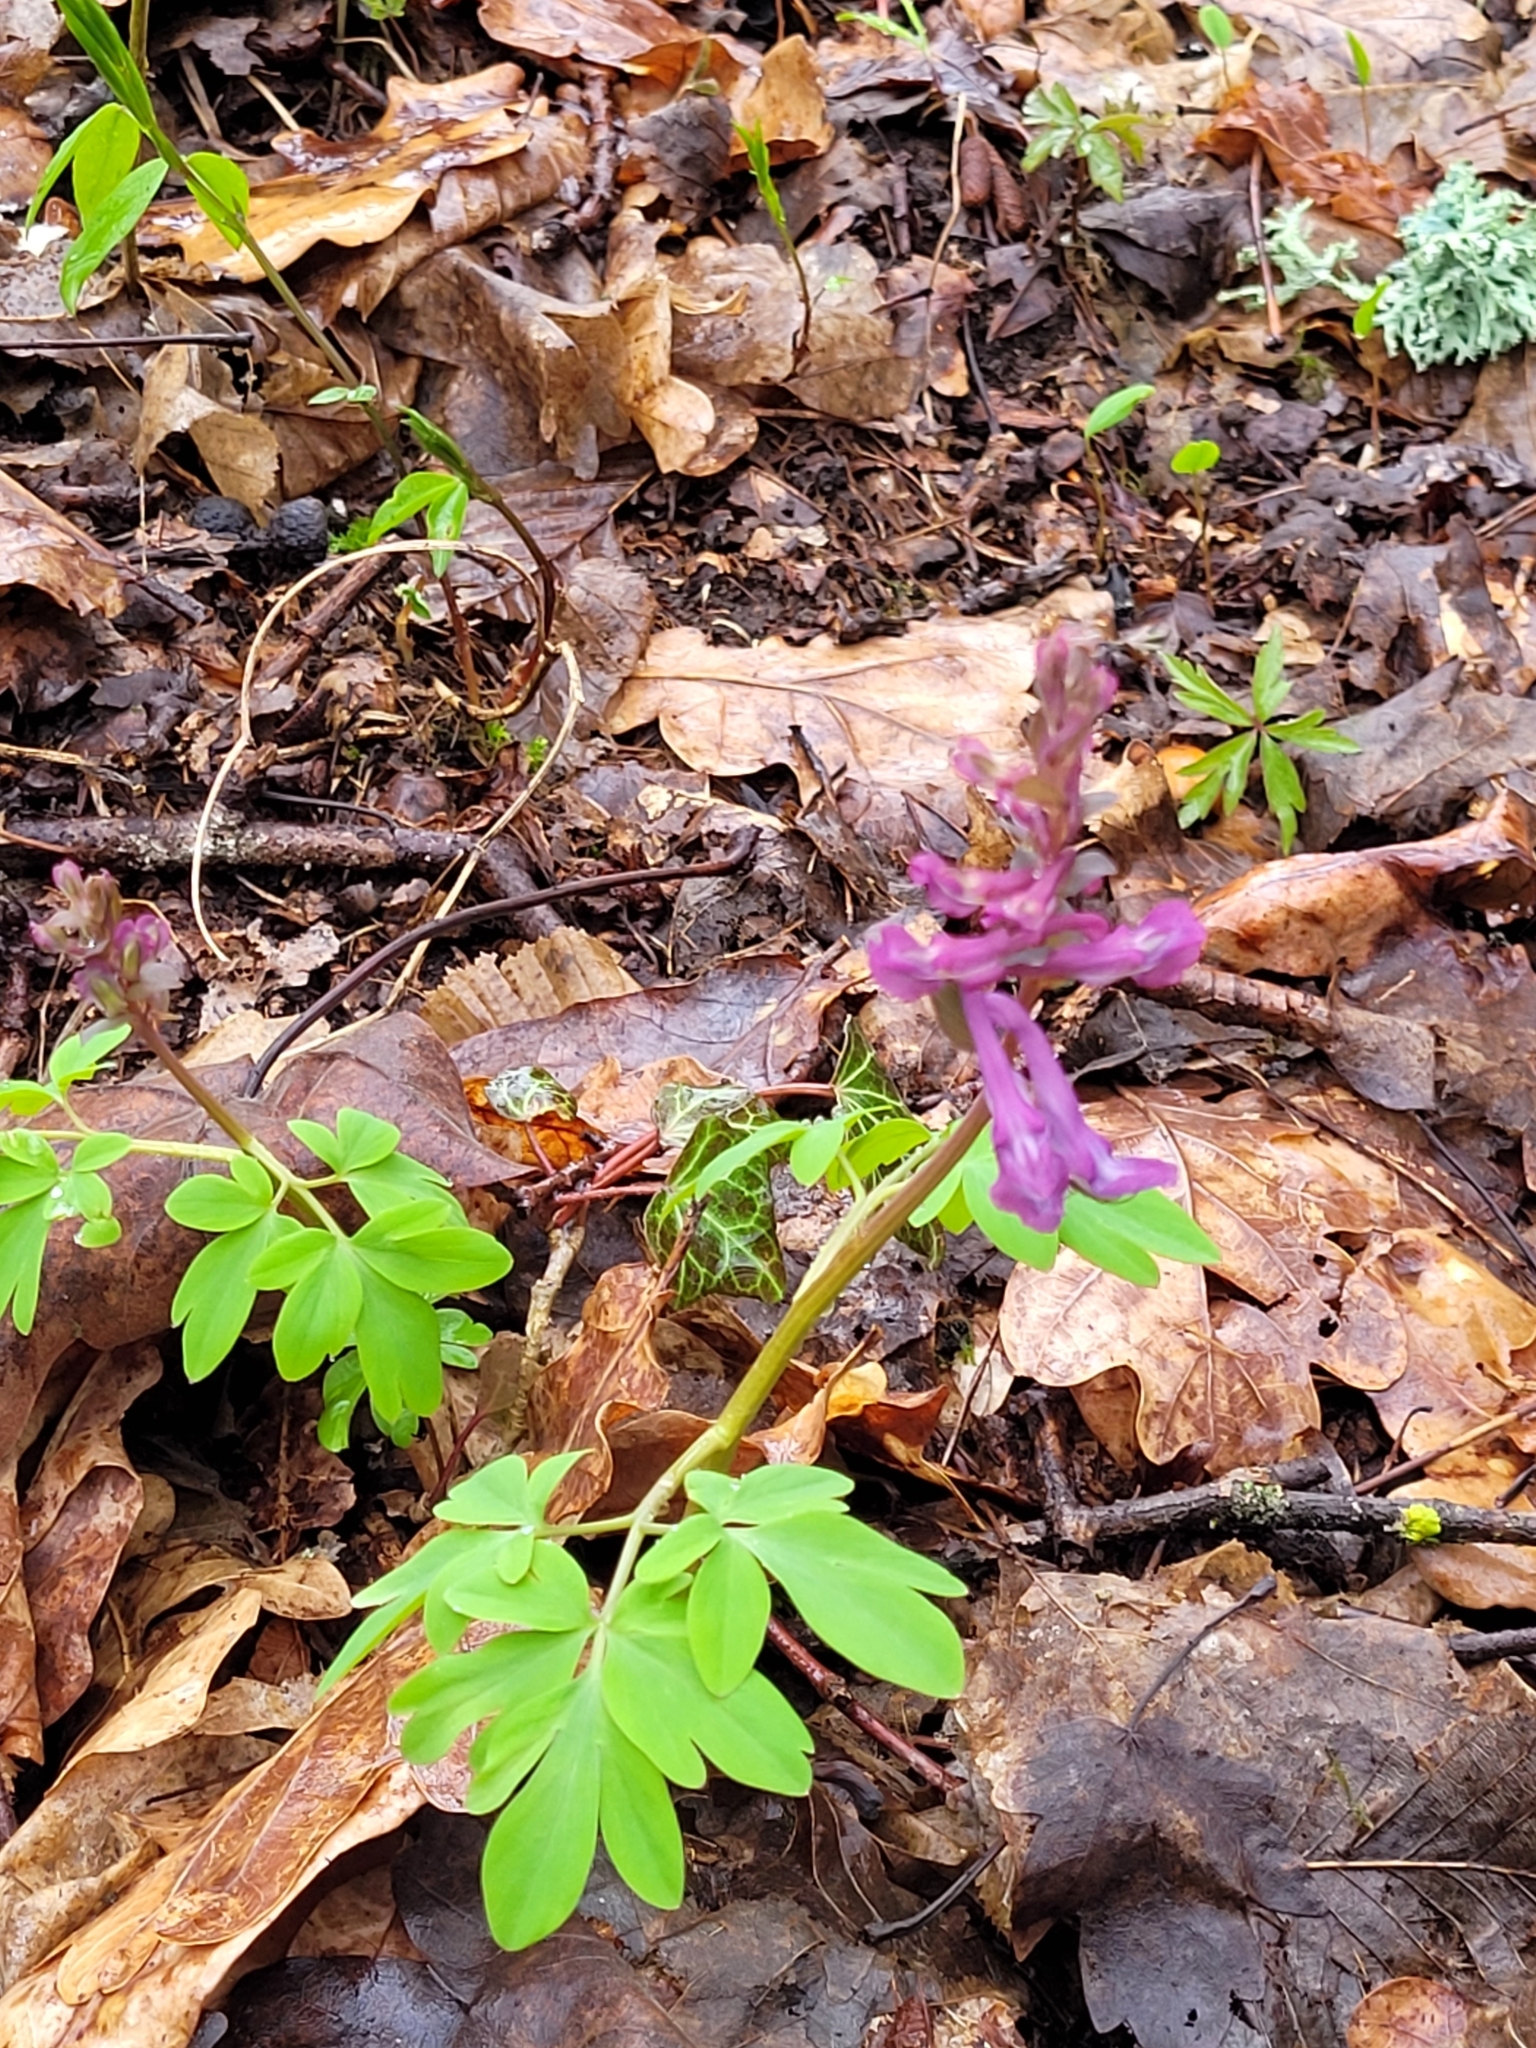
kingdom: Plantae
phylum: Tracheophyta
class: Magnoliopsida
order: Ranunculales
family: Papaveraceae
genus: Corydalis
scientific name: Corydalis cava
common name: Hollowroot
